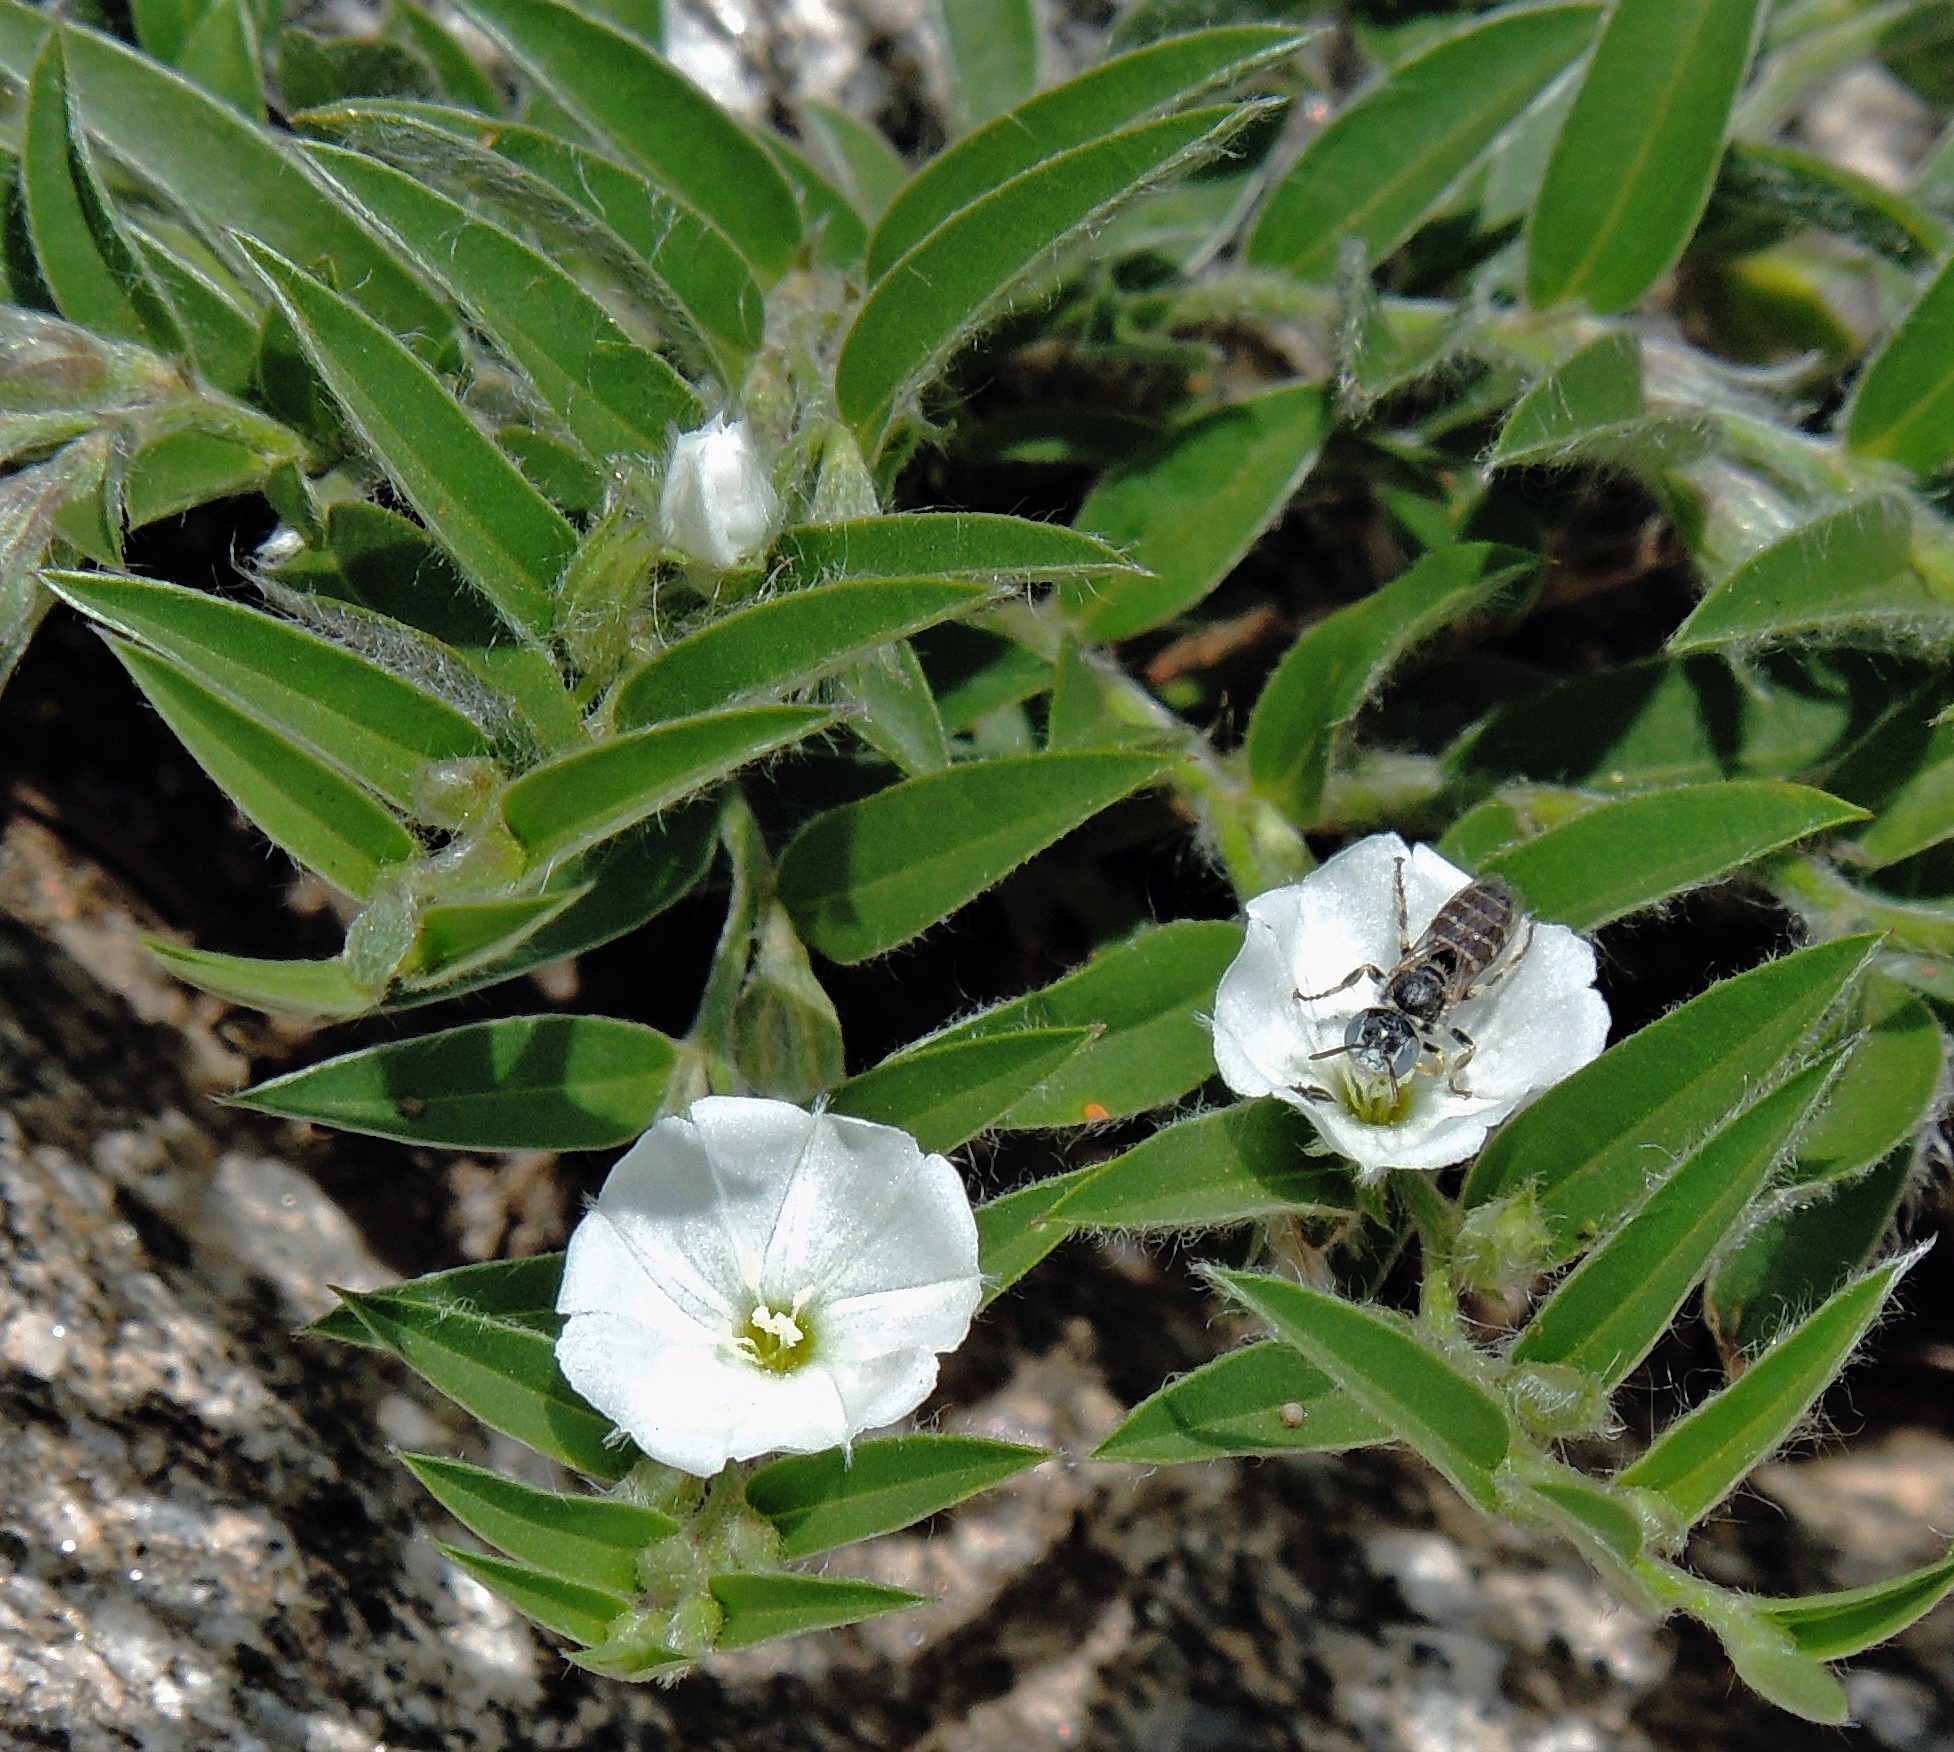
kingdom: Plantae
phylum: Tracheophyta
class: Magnoliopsida
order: Solanales
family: Convolvulaceae
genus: Evolvulus
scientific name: Evolvulus sericeus
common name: Blue dots
